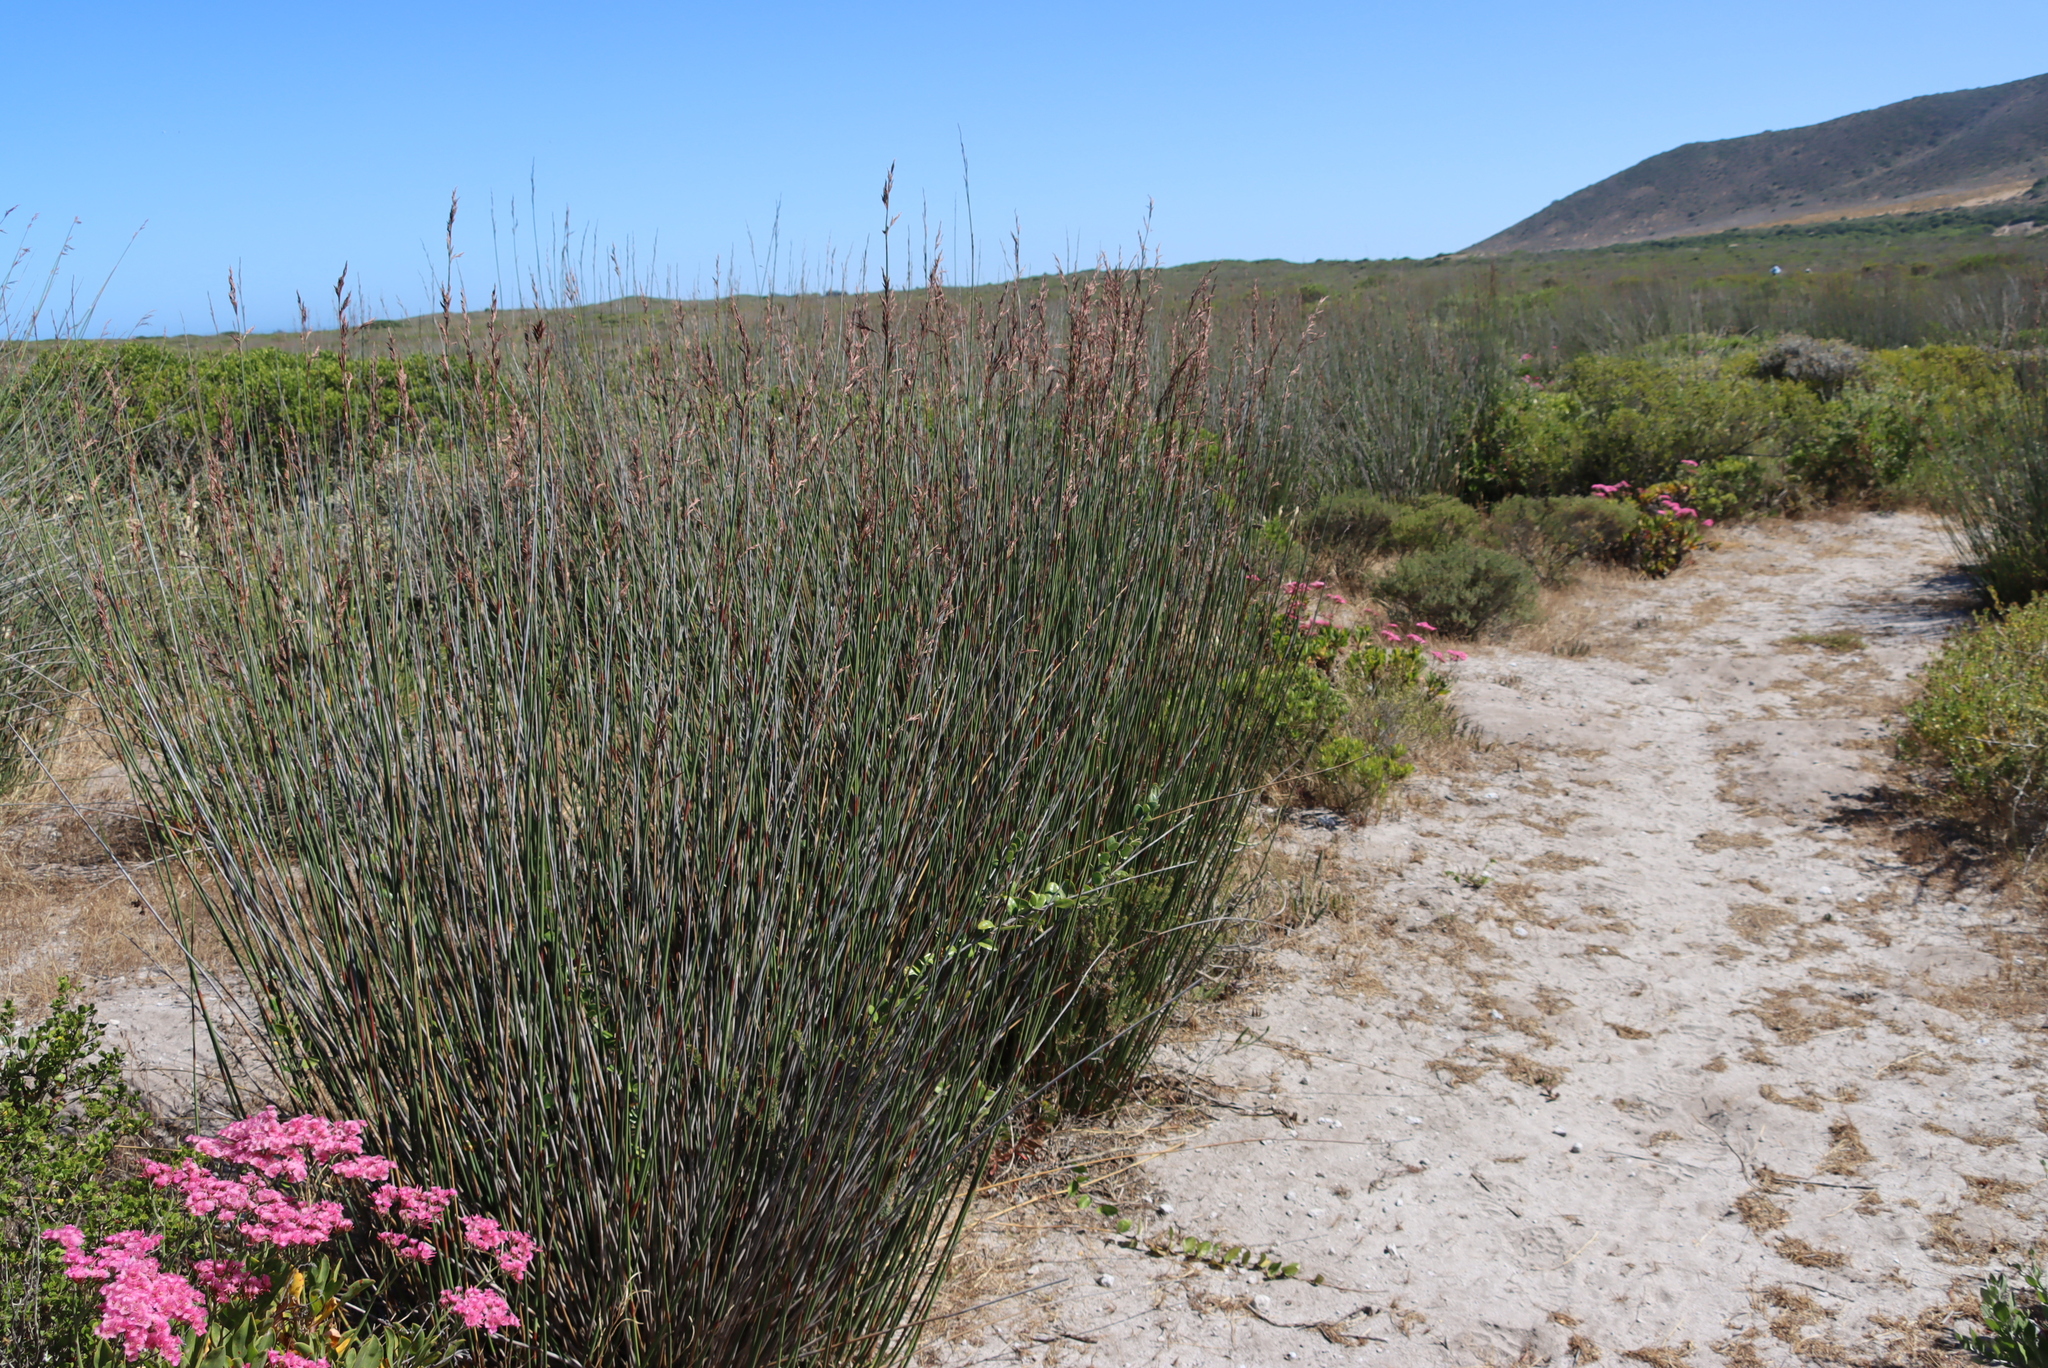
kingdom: Plantae
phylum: Tracheophyta
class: Magnoliopsida
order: Celastrales
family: Celastraceae
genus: Putterlickia
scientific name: Putterlickia pyracantha
